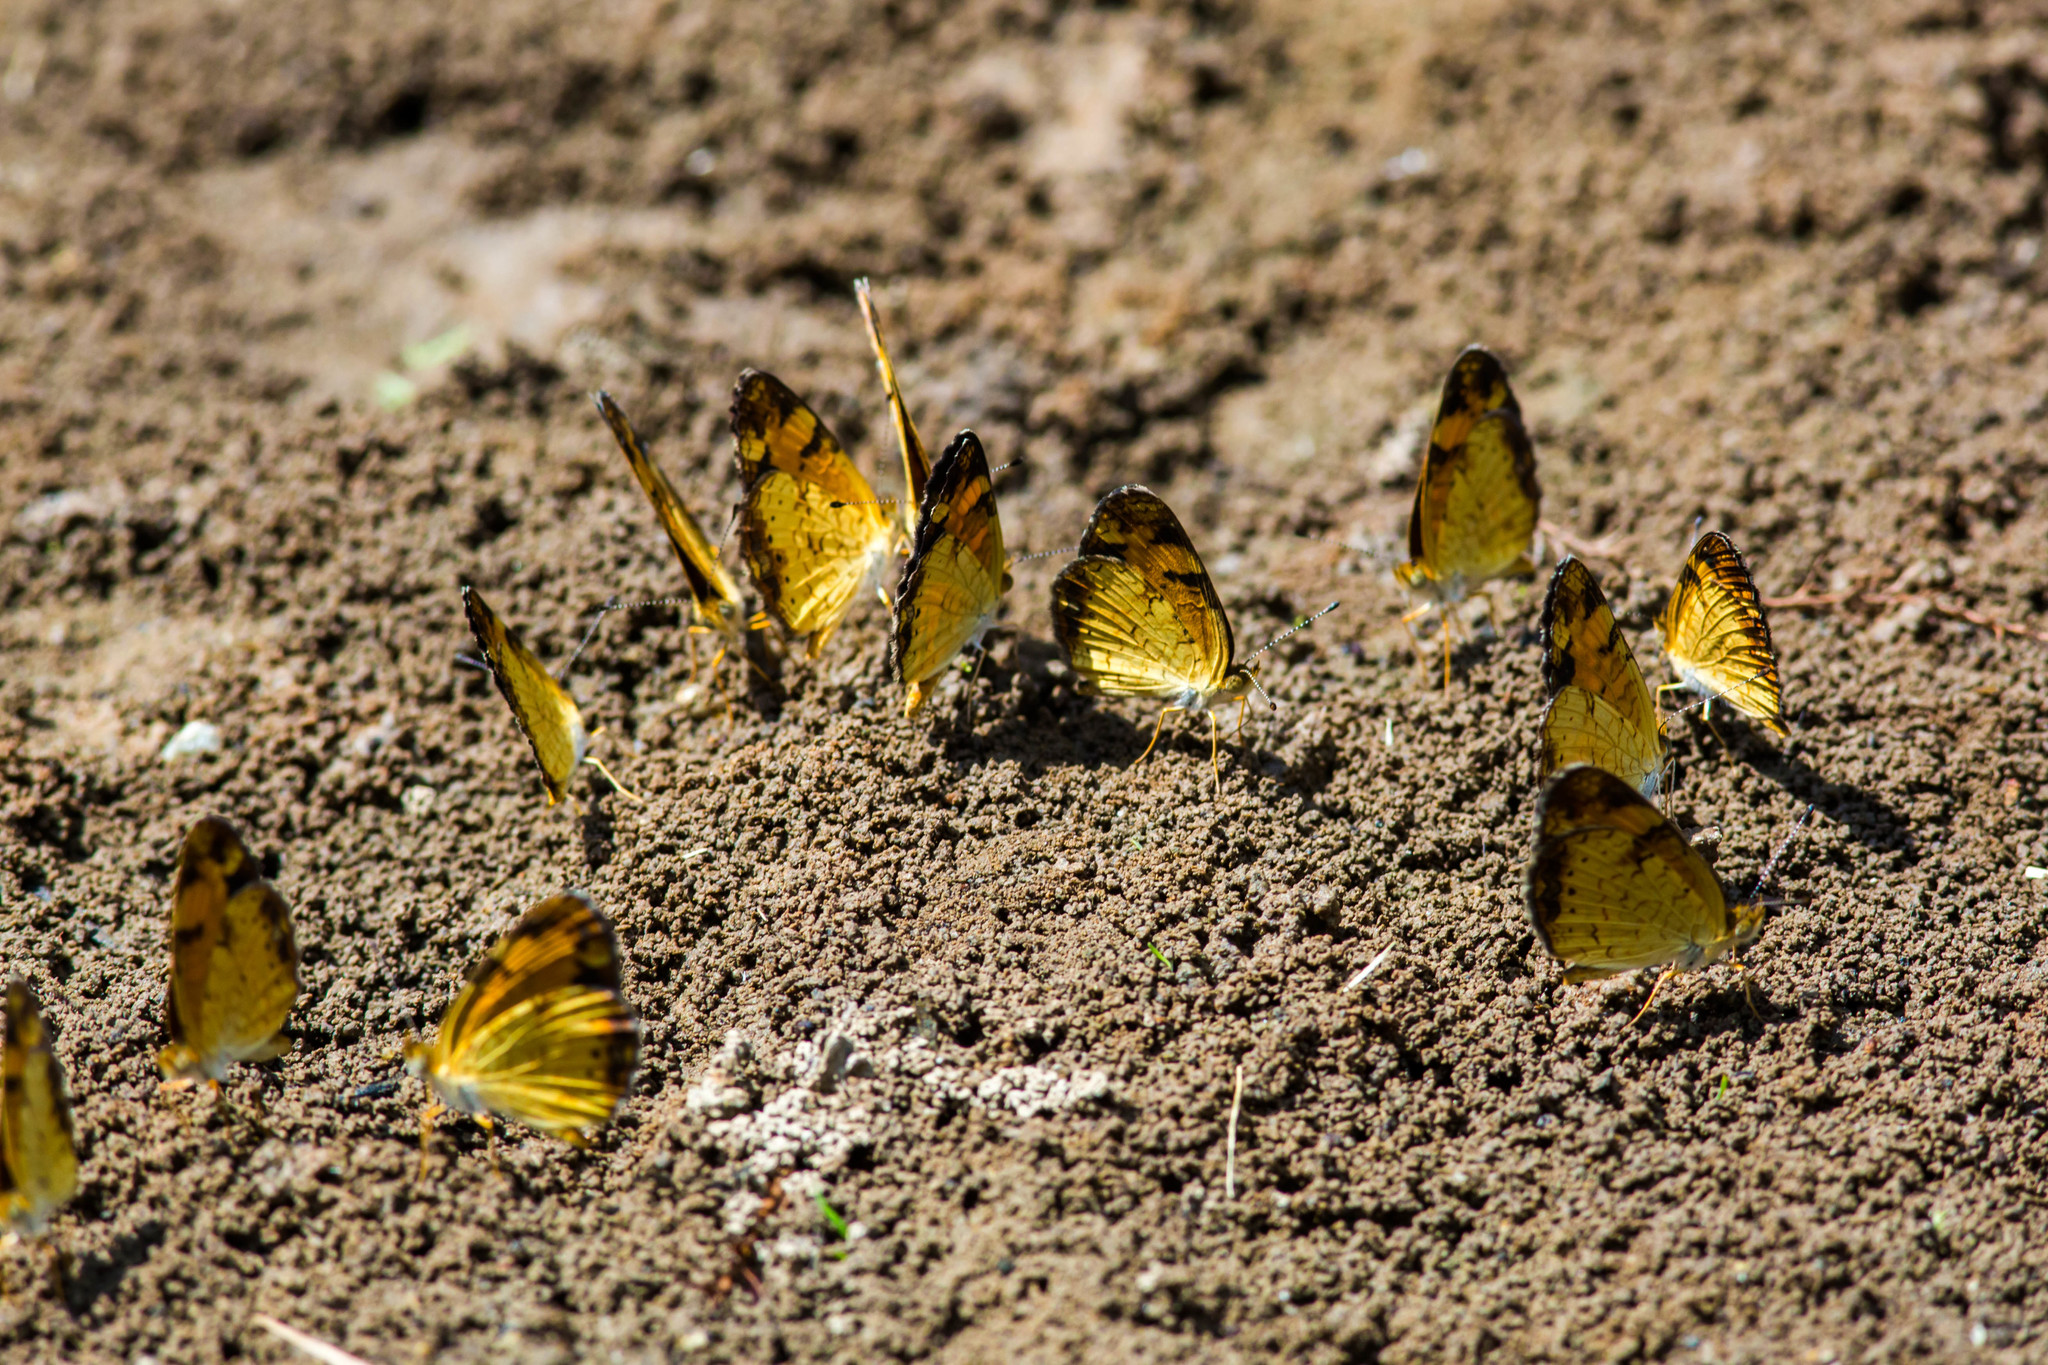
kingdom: Animalia
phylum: Arthropoda
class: Insecta
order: Lepidoptera
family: Nymphalidae
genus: Phyciodes
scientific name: Phyciodes tharos
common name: Pearl crescent
